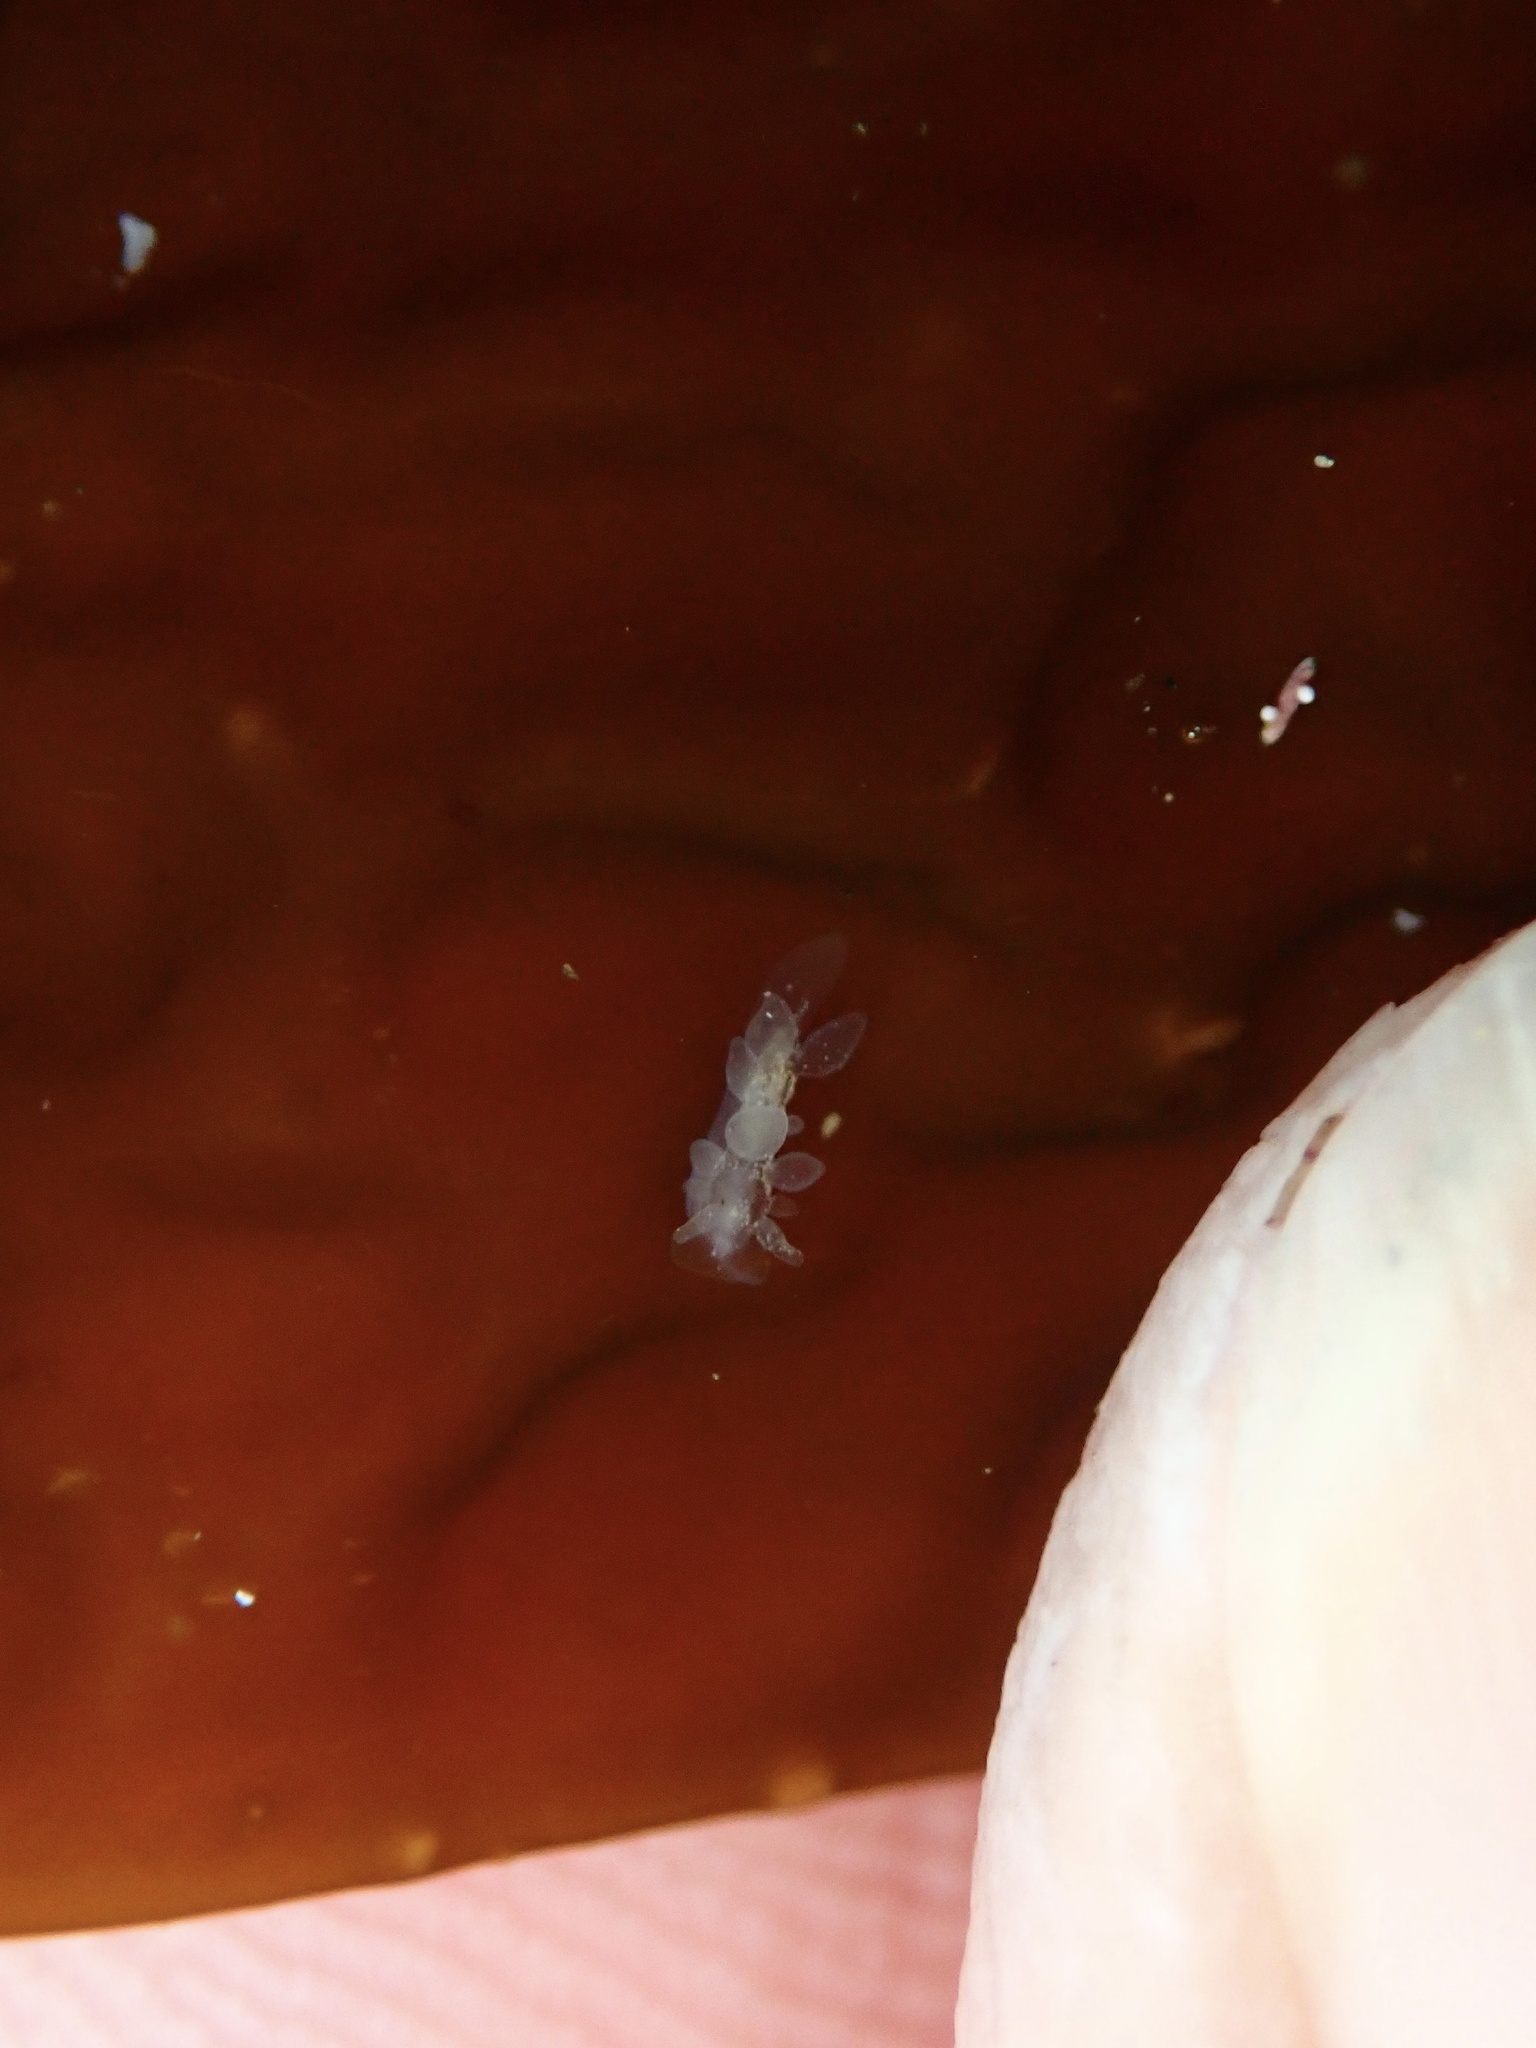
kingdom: Animalia
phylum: Mollusca
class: Gastropoda
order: Nudibranchia
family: Dironidae
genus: Dirona
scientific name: Dirona picta
